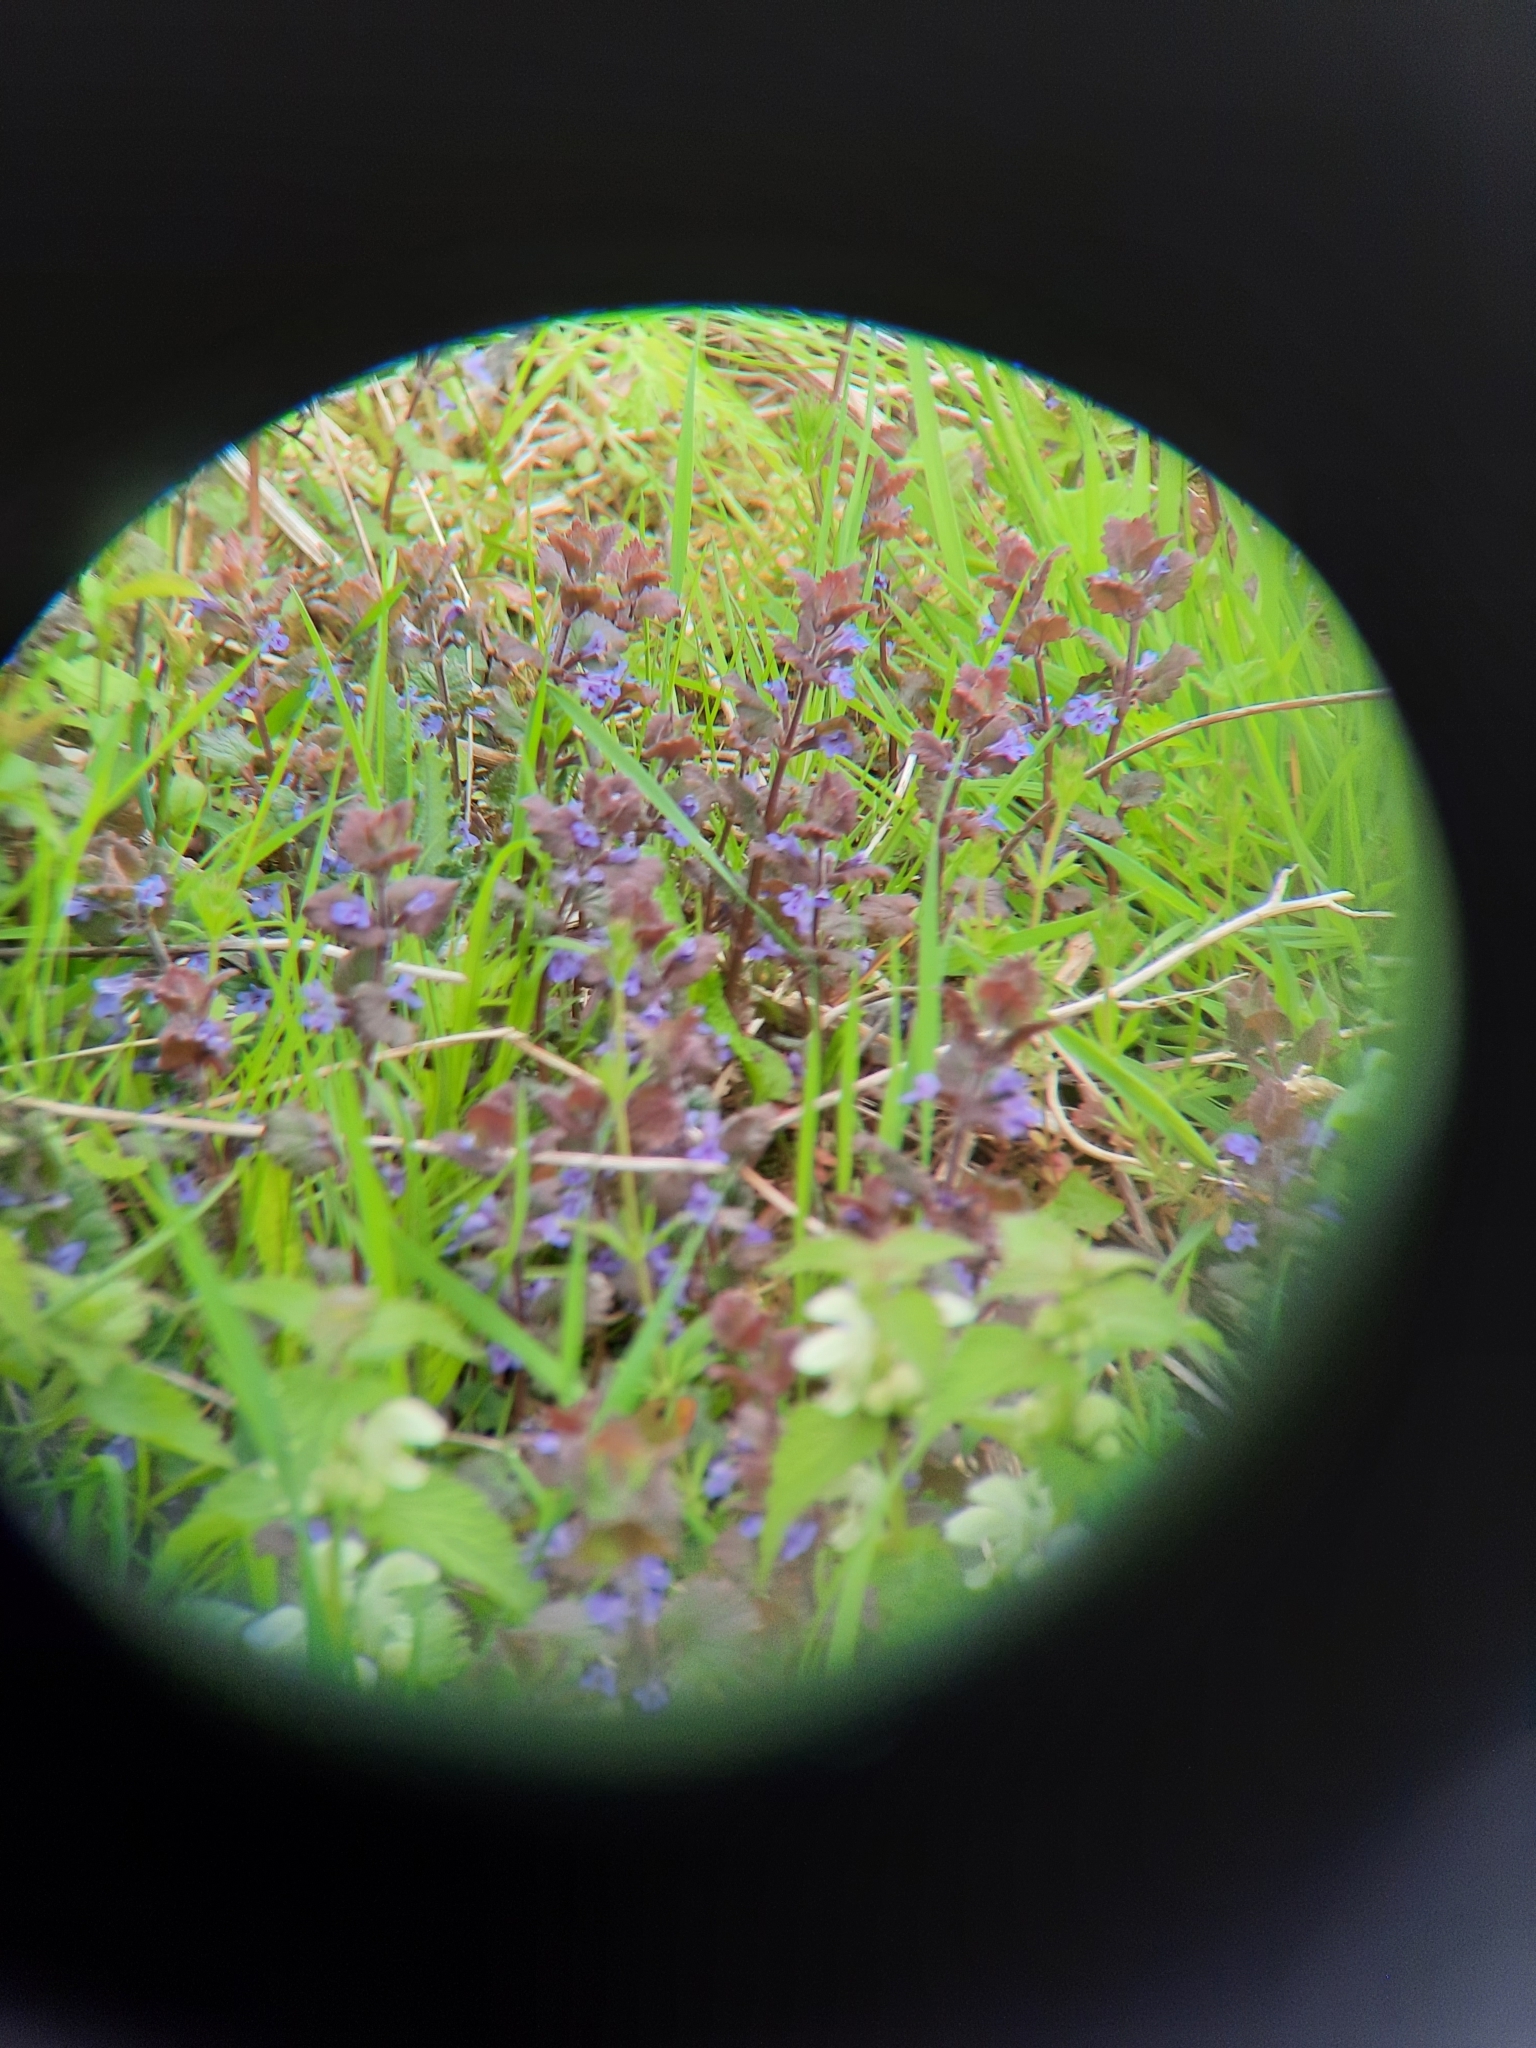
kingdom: Plantae
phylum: Tracheophyta
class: Magnoliopsida
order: Lamiales
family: Lamiaceae
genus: Glechoma
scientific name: Glechoma hederacea
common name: Ground ivy
